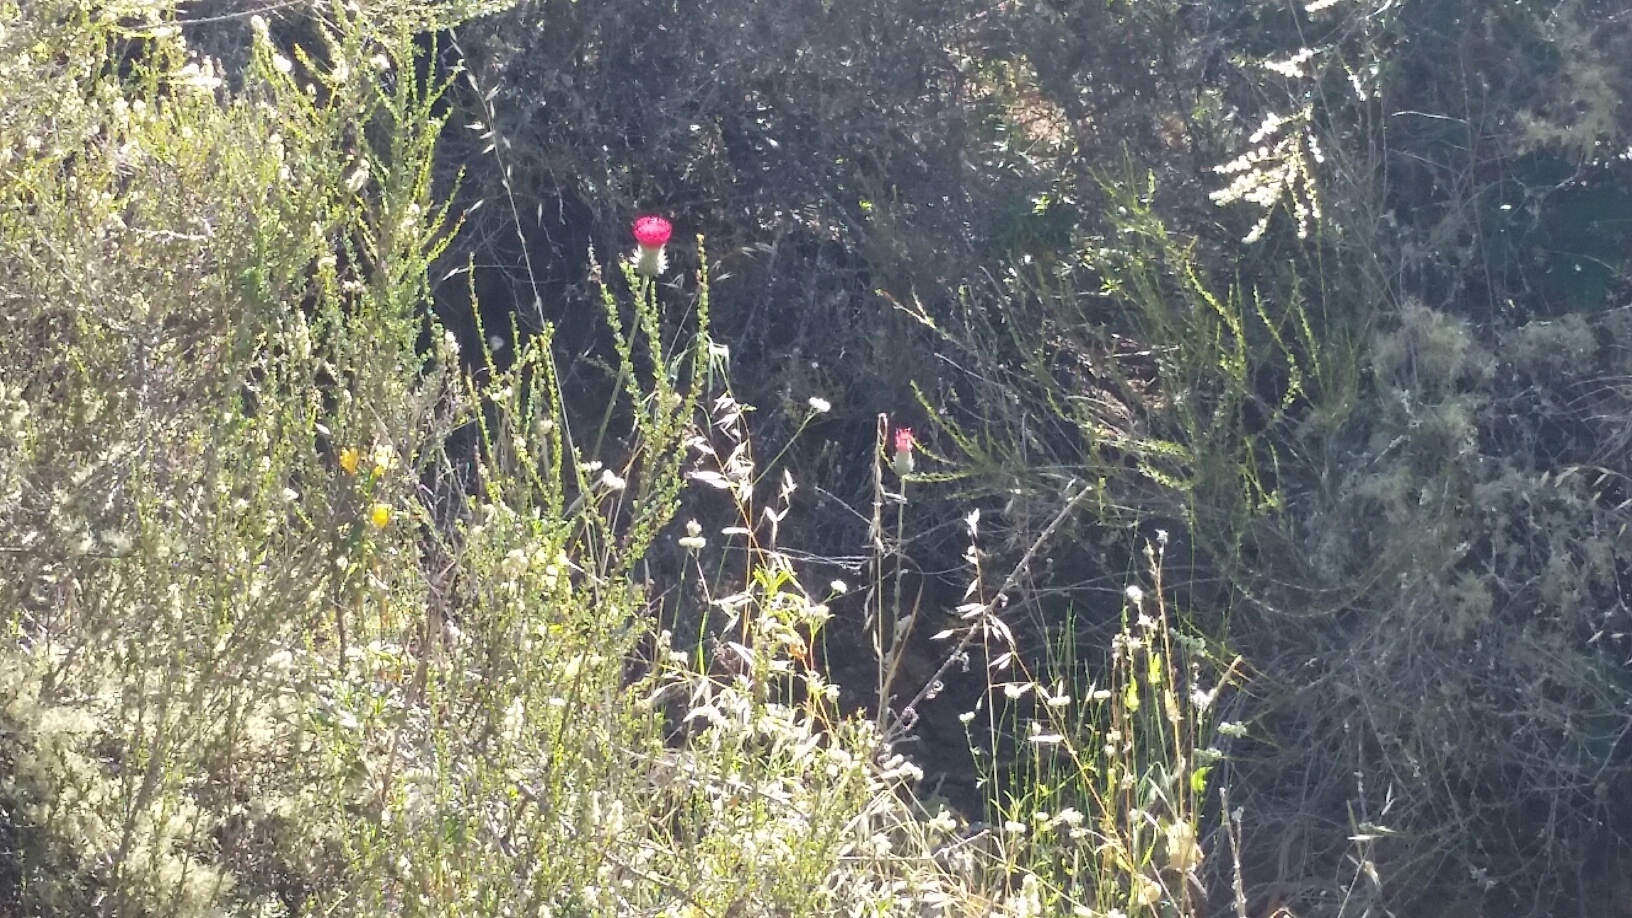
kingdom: Plantae
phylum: Tracheophyta
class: Magnoliopsida
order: Asterales
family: Asteraceae
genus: Cirsium
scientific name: Cirsium occidentale
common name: Western thistle
